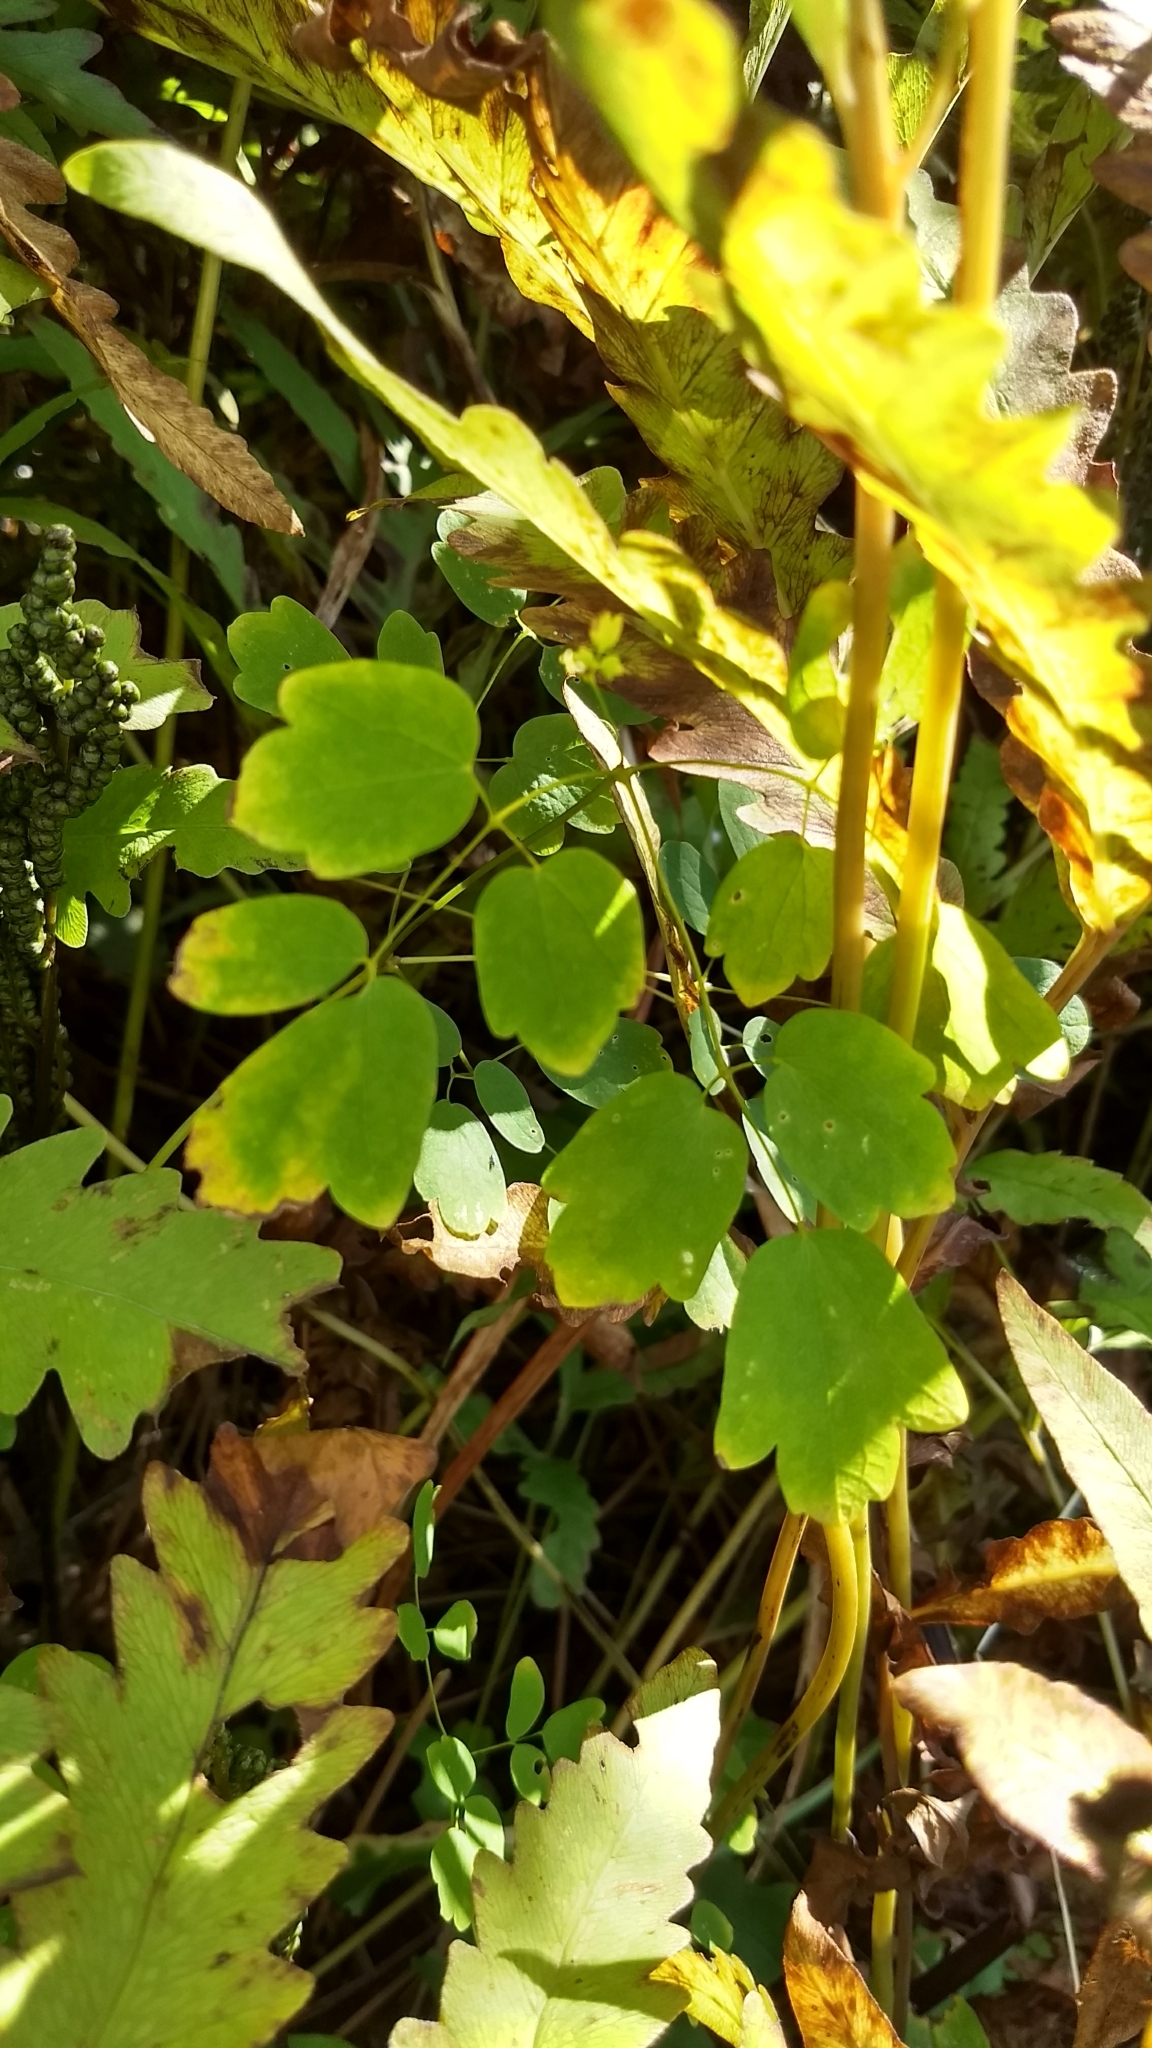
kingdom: Plantae
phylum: Tracheophyta
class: Magnoliopsida
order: Ranunculales
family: Ranunculaceae
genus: Thalictrum
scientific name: Thalictrum pubescens
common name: King-of-the-meadow
